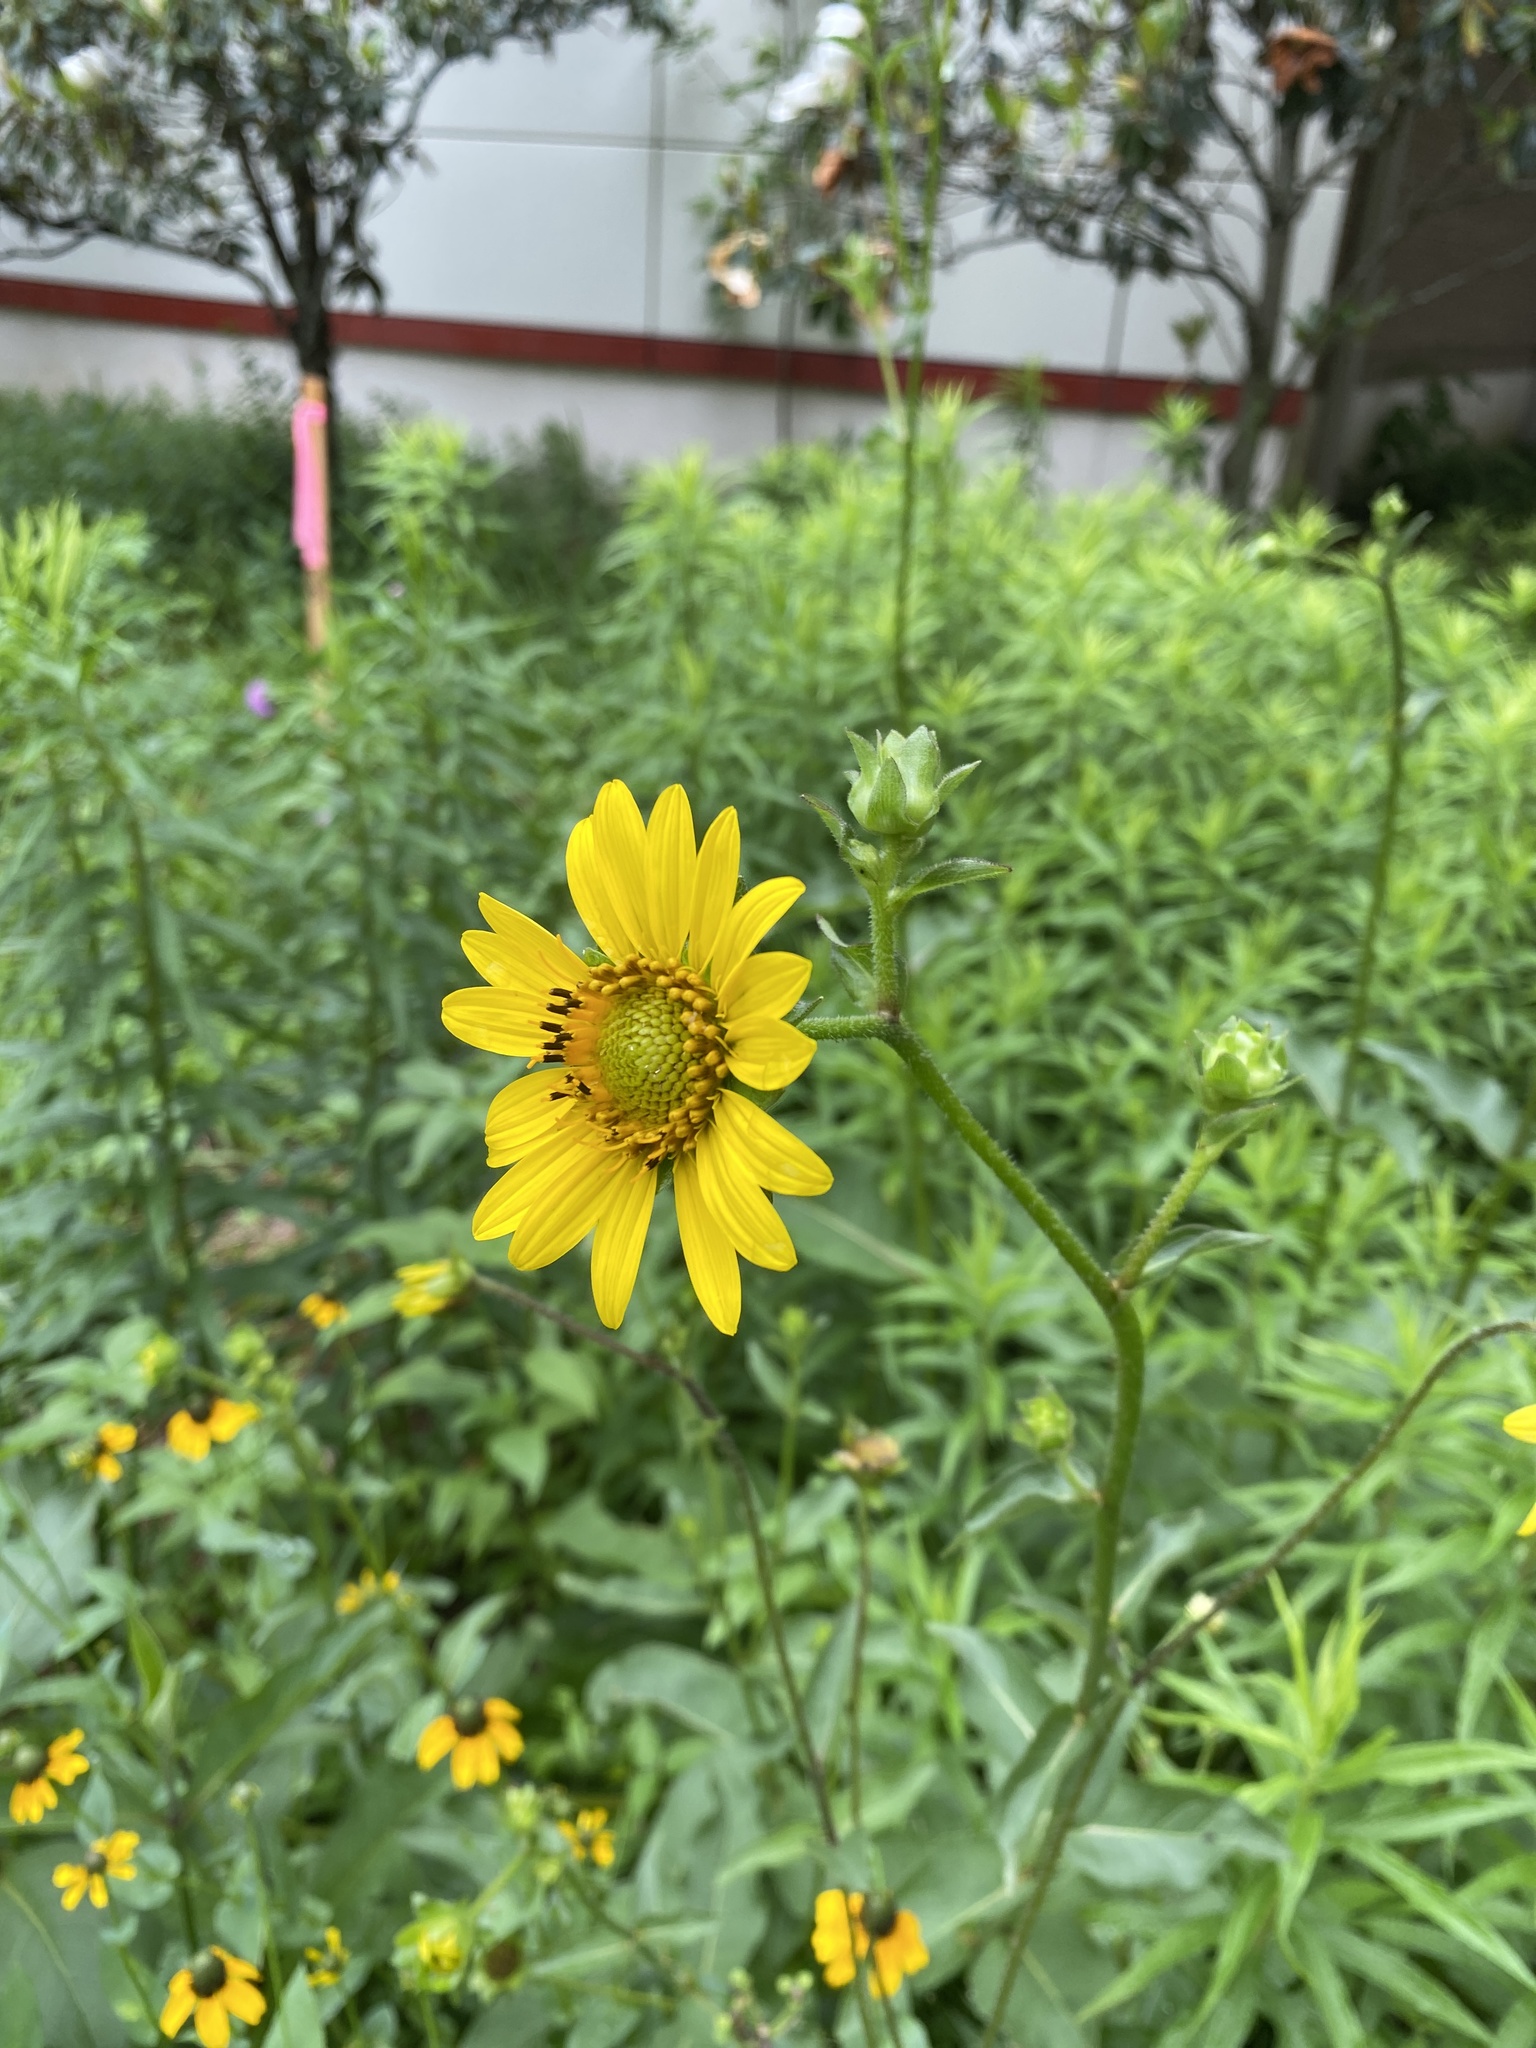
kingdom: Plantae
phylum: Tracheophyta
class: Magnoliopsida
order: Asterales
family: Asteraceae
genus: Silphium
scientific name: Silphium radula
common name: Roughleaf rosinweed
